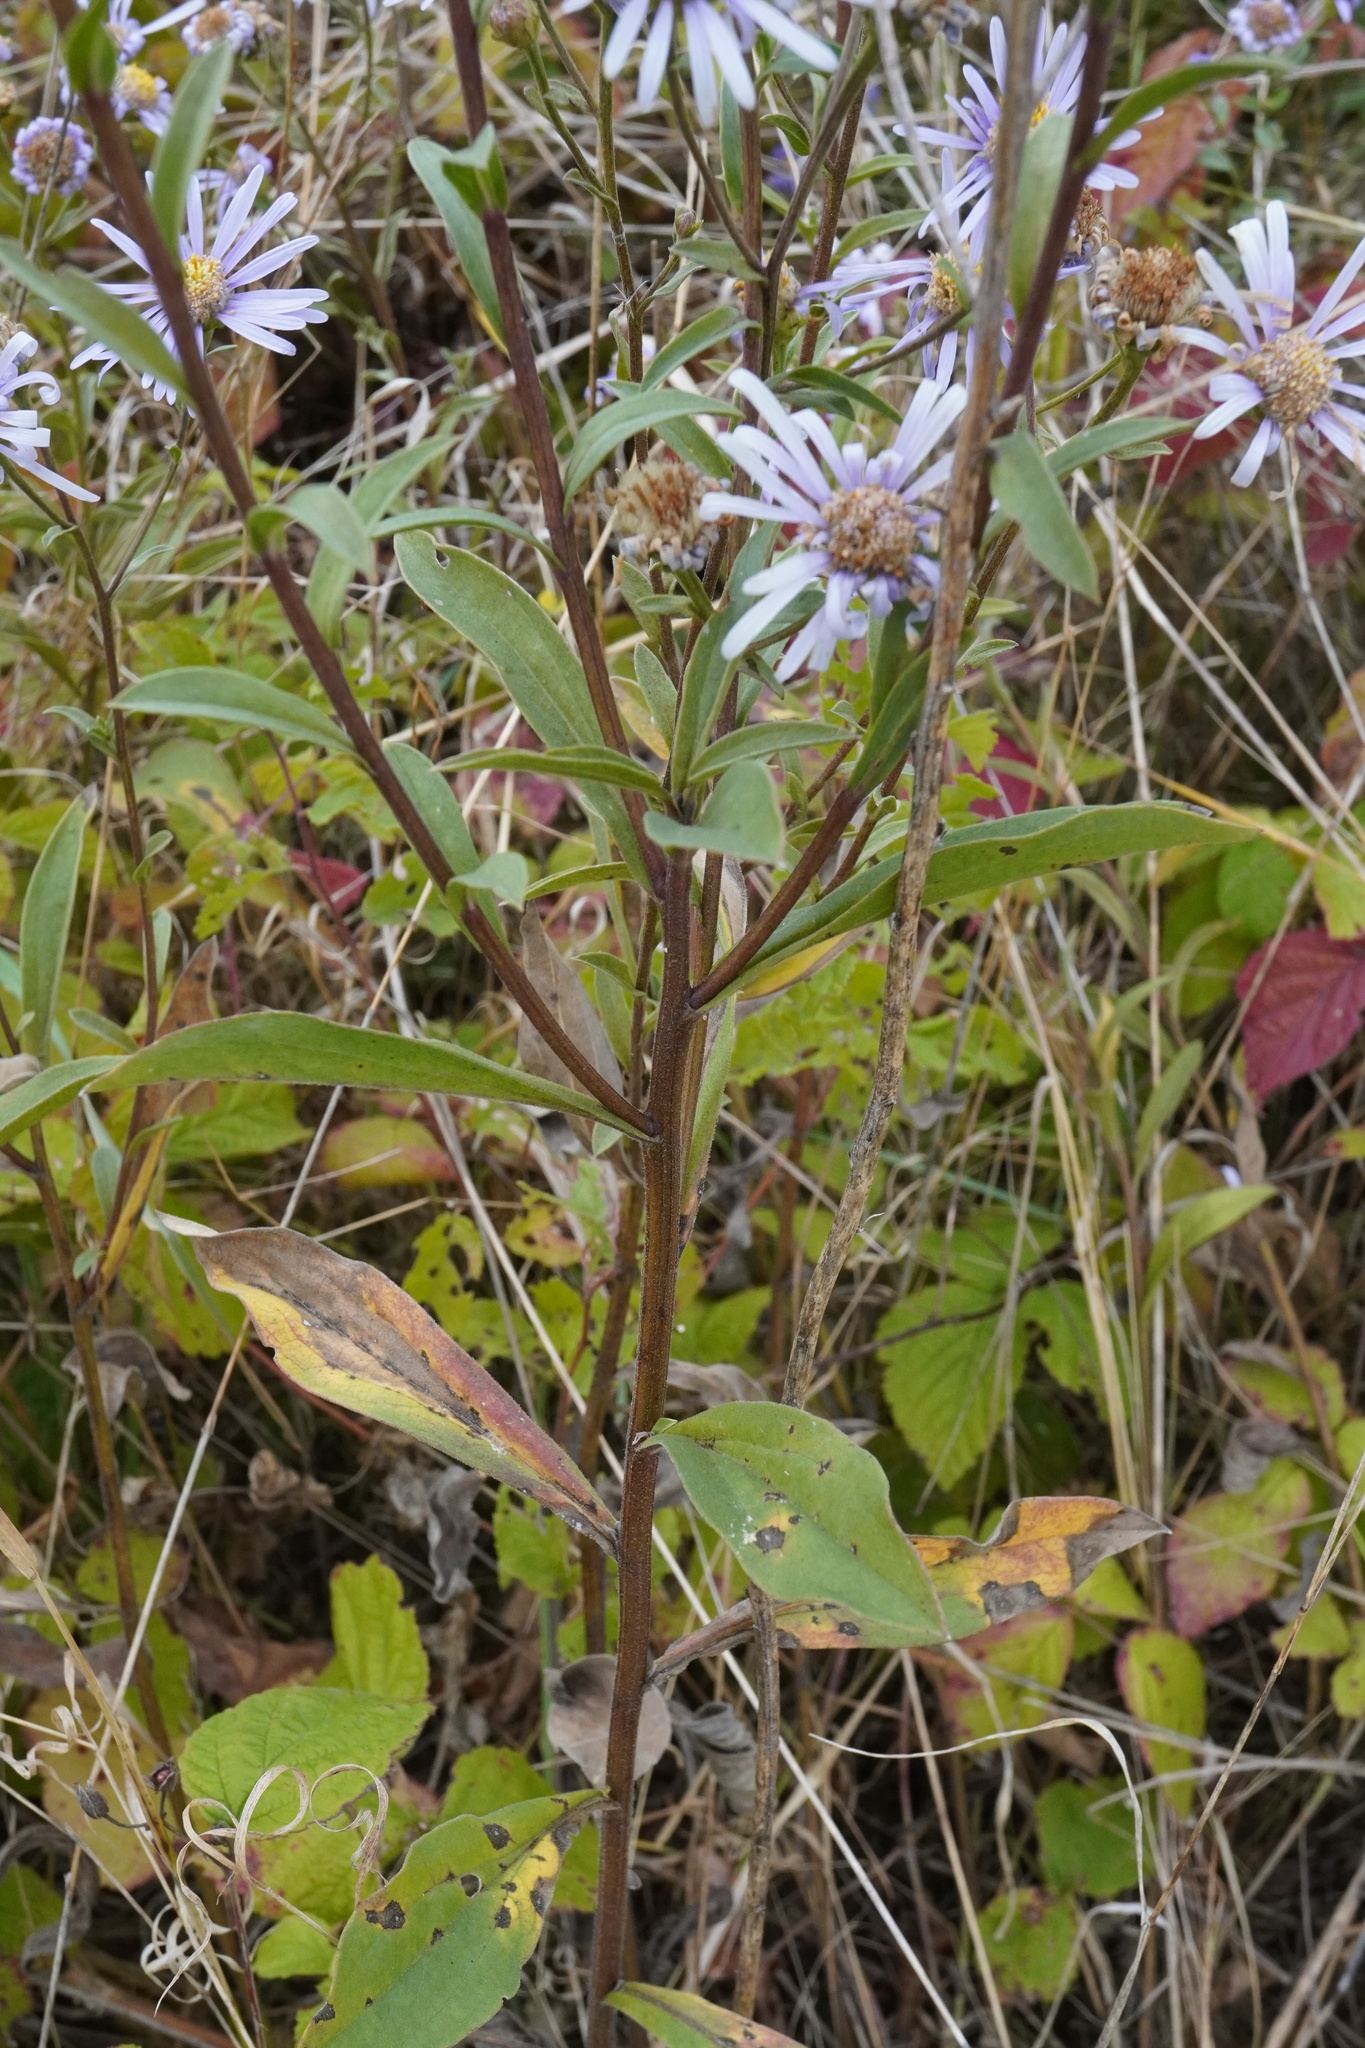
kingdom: Plantae
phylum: Tracheophyta
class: Magnoliopsida
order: Asterales
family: Asteraceae
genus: Aster
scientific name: Aster amellus
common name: European michaelmas daisy
